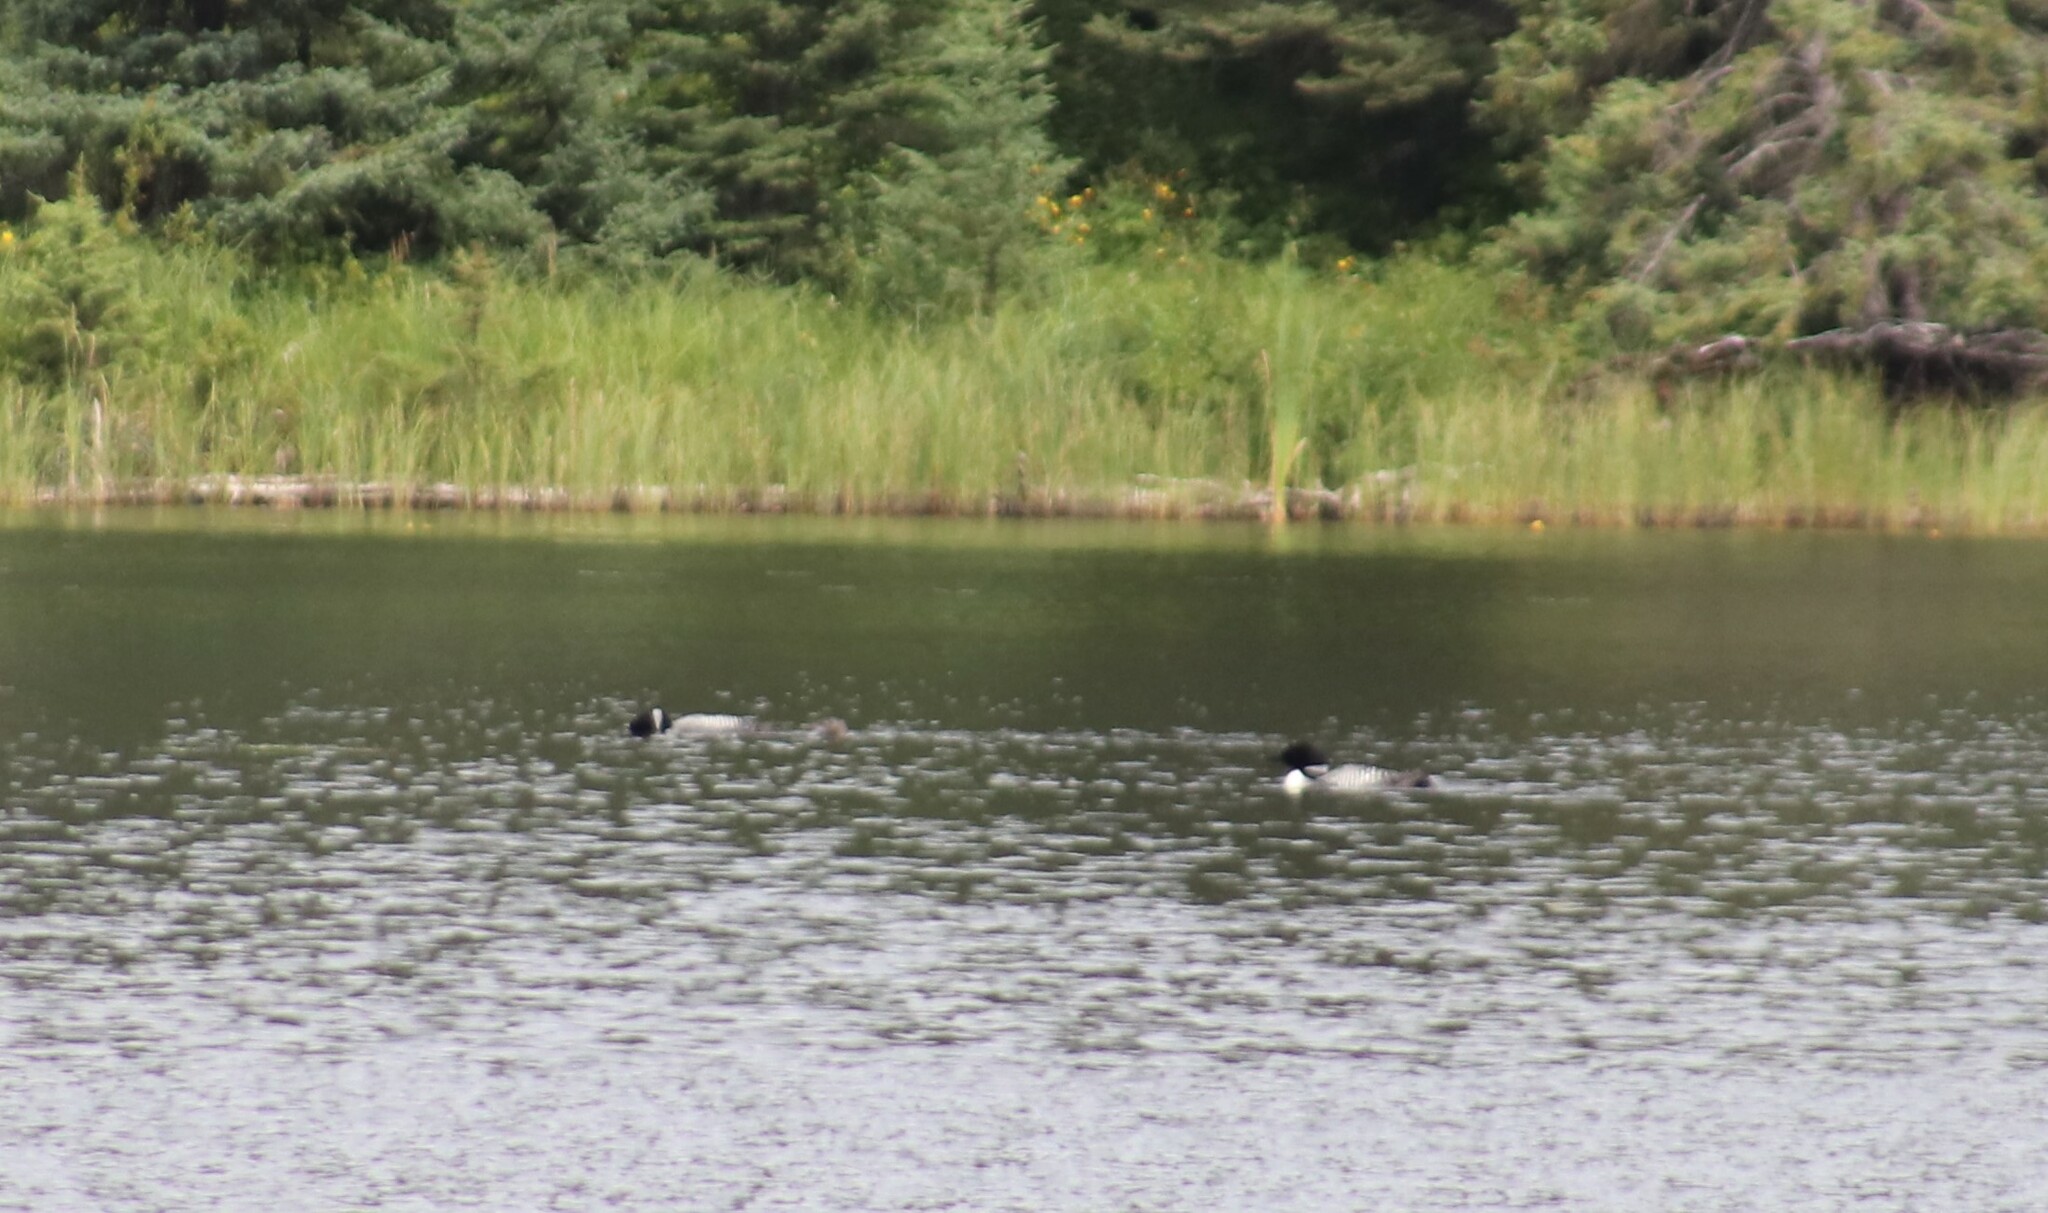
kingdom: Animalia
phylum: Chordata
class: Aves
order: Gaviiformes
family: Gaviidae
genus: Gavia
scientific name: Gavia immer
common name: Common loon
